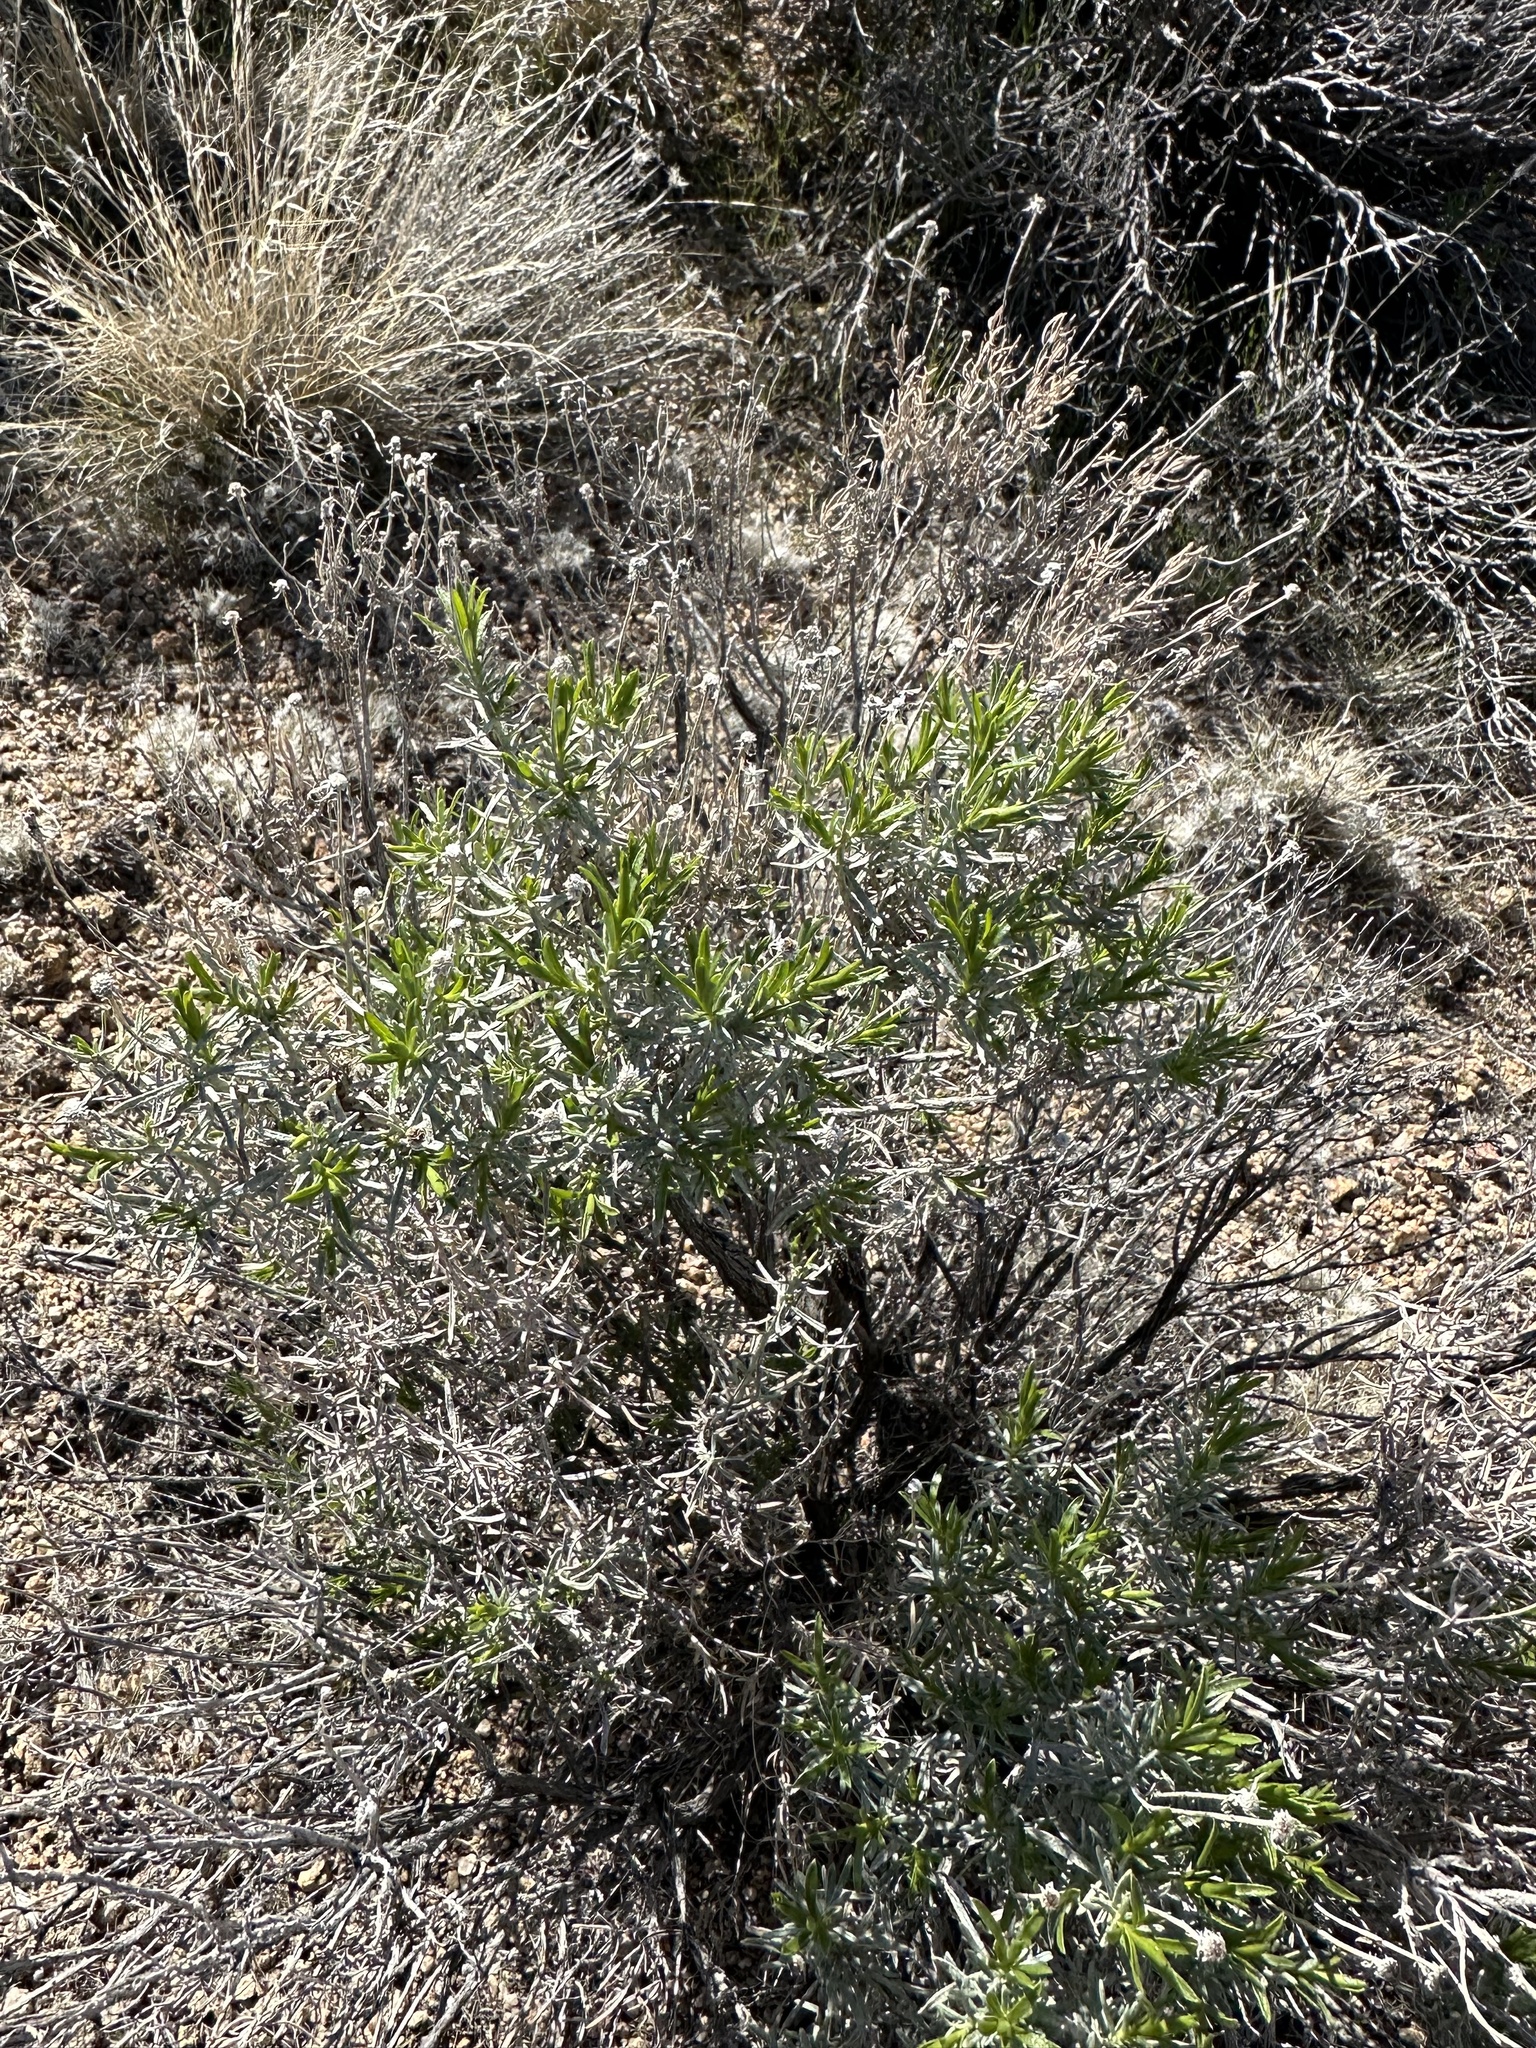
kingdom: Plantae
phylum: Tracheophyta
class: Magnoliopsida
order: Asterales
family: Asteraceae
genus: Ericameria
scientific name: Ericameria linearifolia
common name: Interior goldenbush
